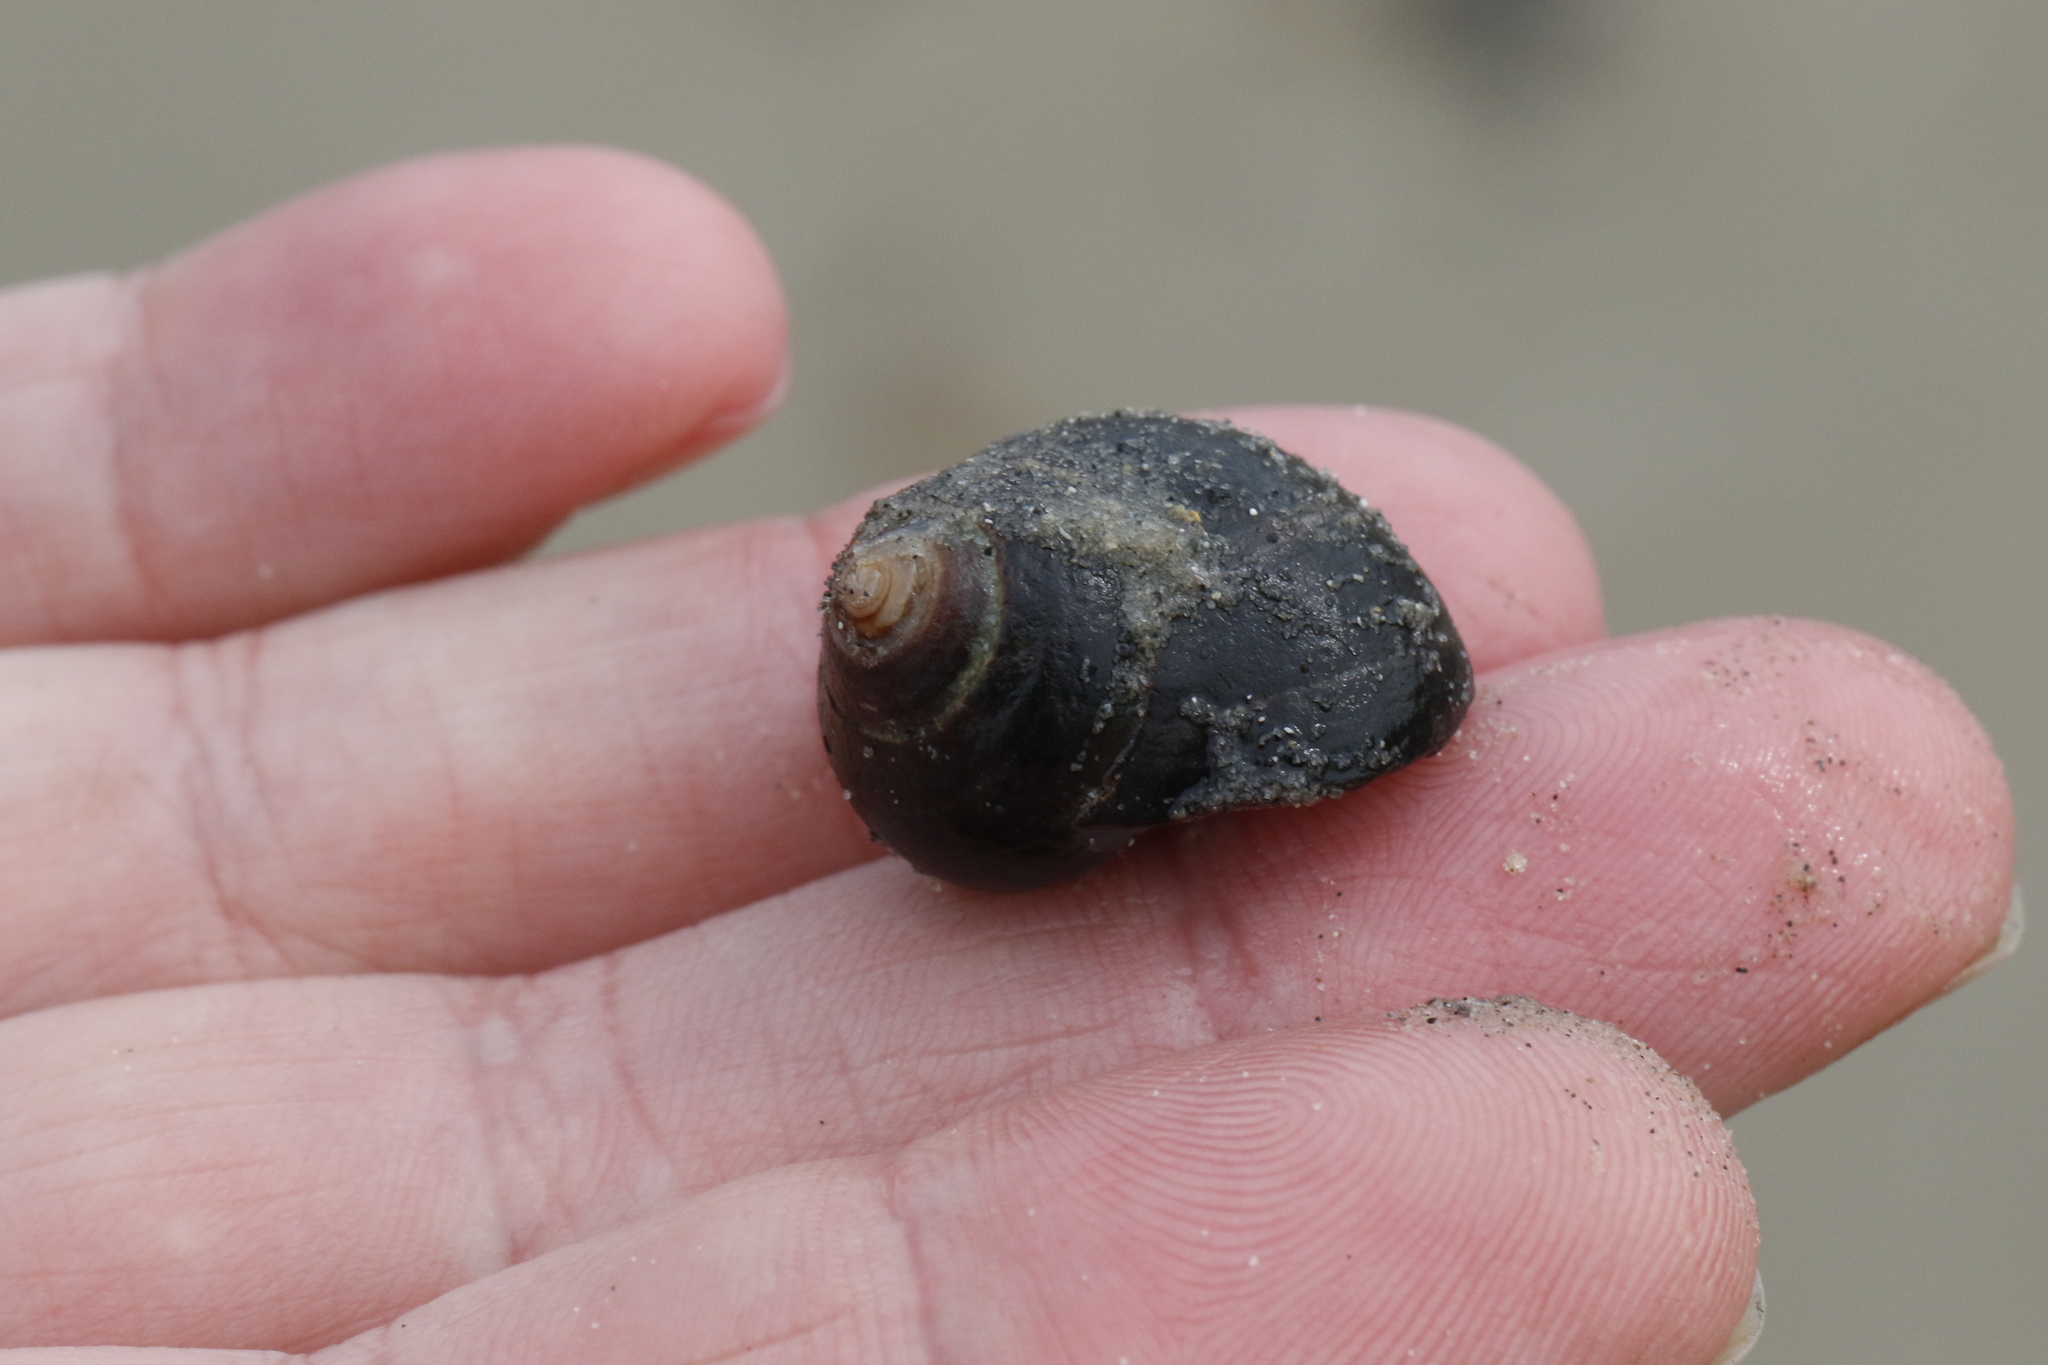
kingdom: Animalia
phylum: Mollusca
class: Gastropoda
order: Littorinimorpha
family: Littorinidae
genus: Littorina
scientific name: Littorina littorea
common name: Common periwinkle
